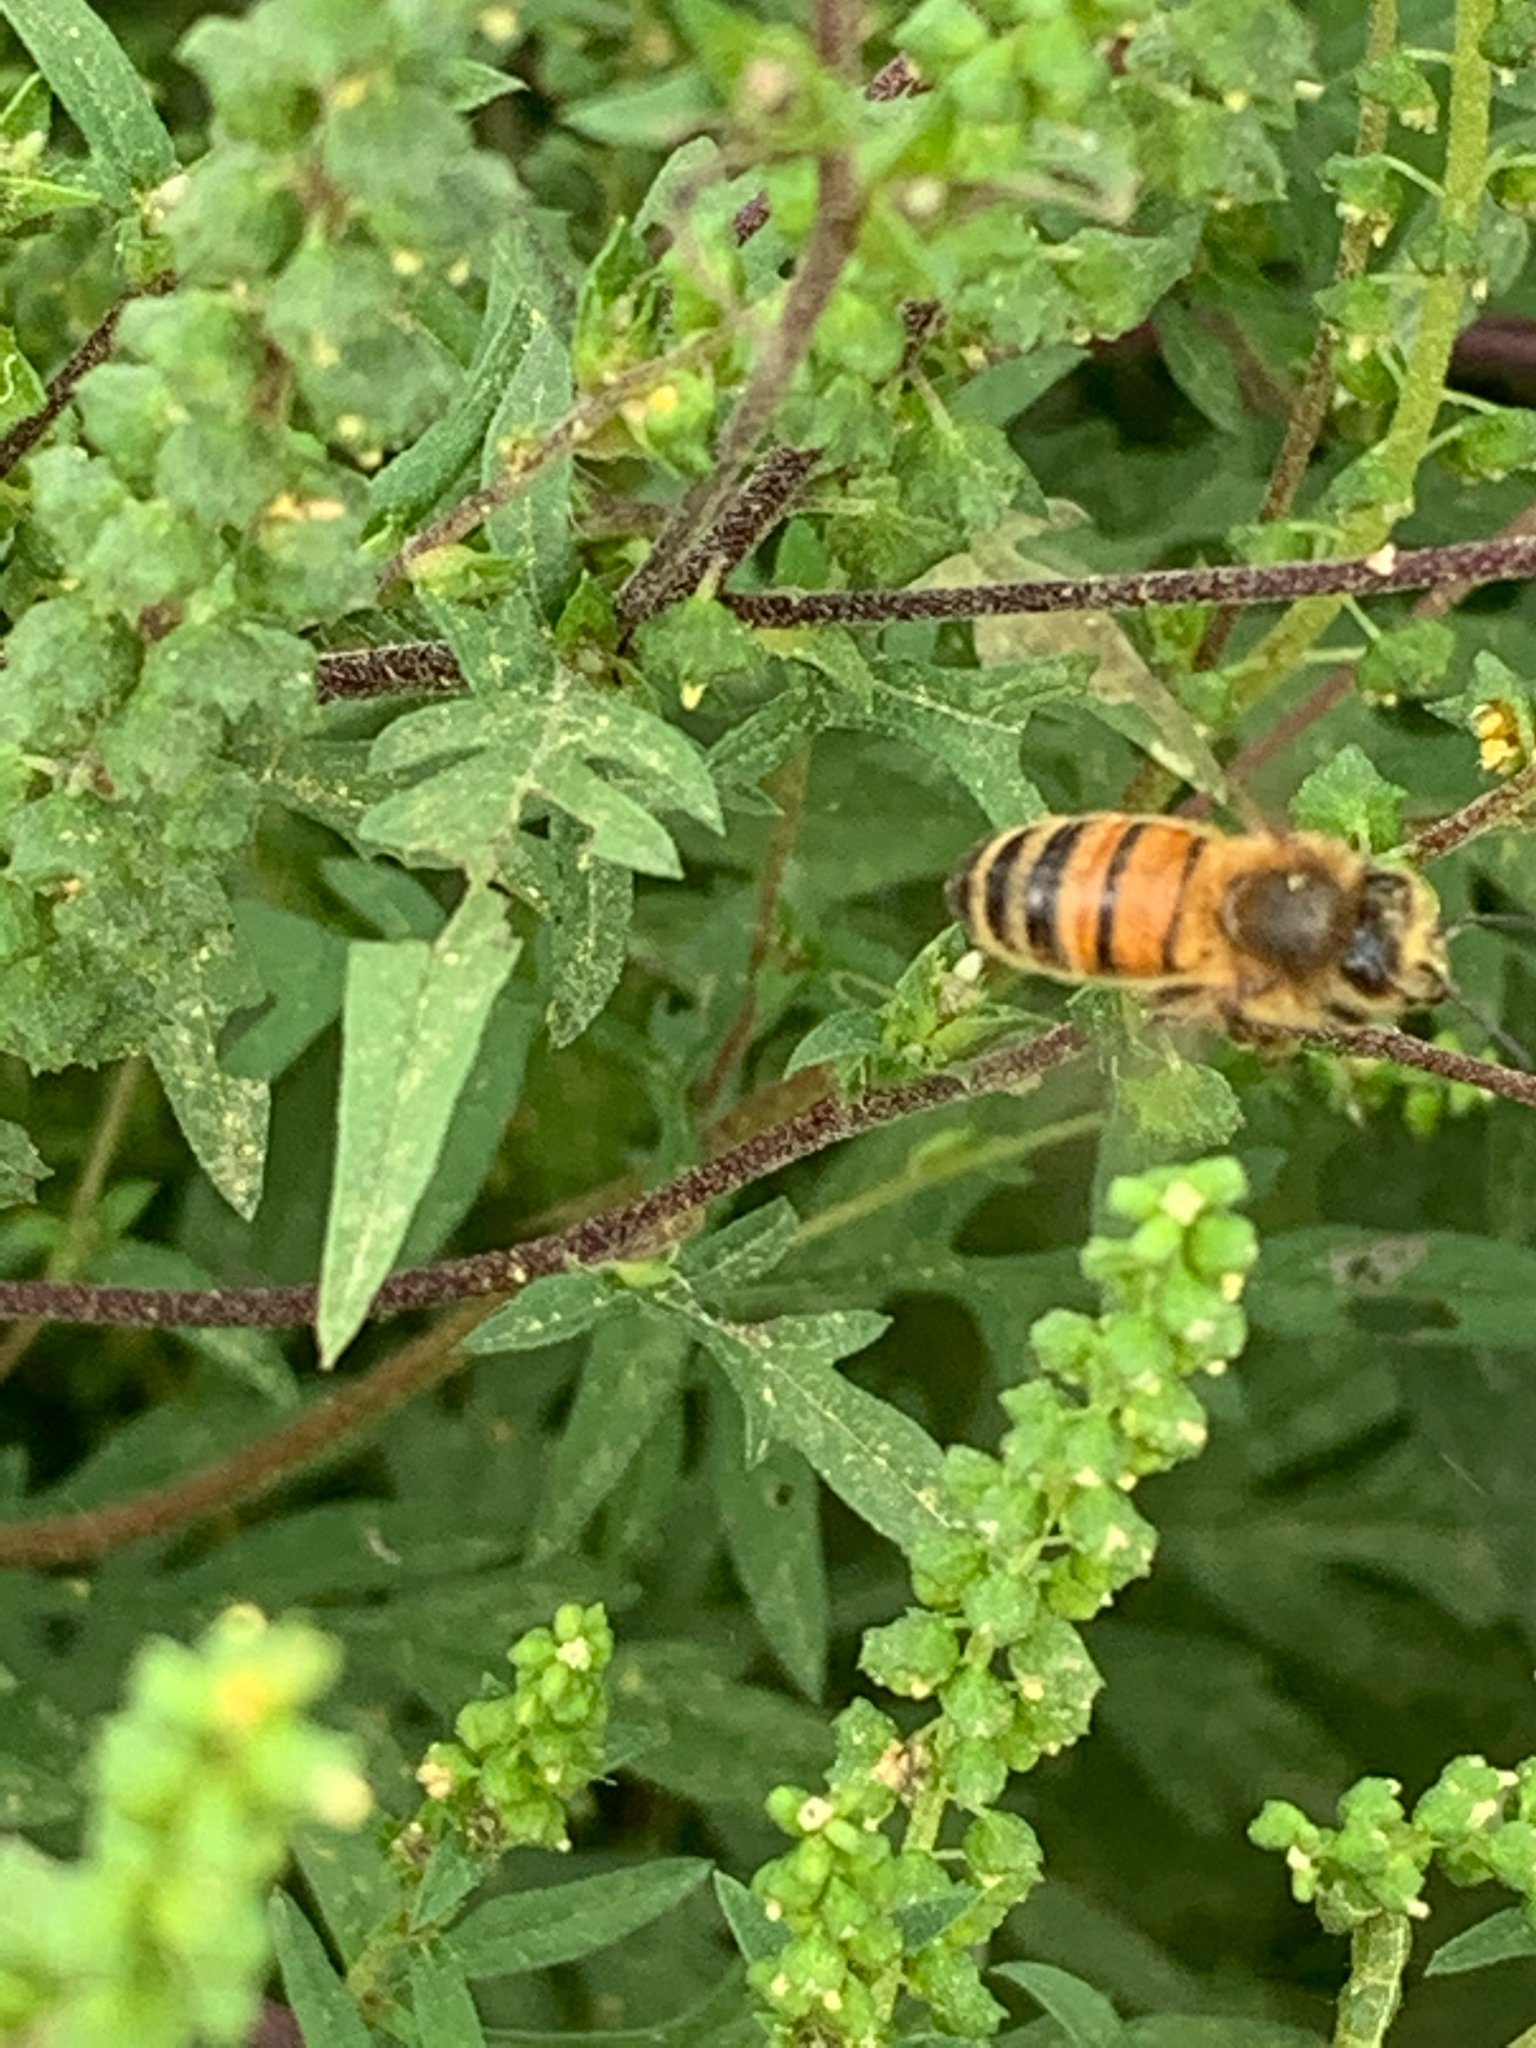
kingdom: Animalia
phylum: Arthropoda
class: Insecta
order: Hymenoptera
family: Apidae
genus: Apis
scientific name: Apis mellifera
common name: Honey bee
